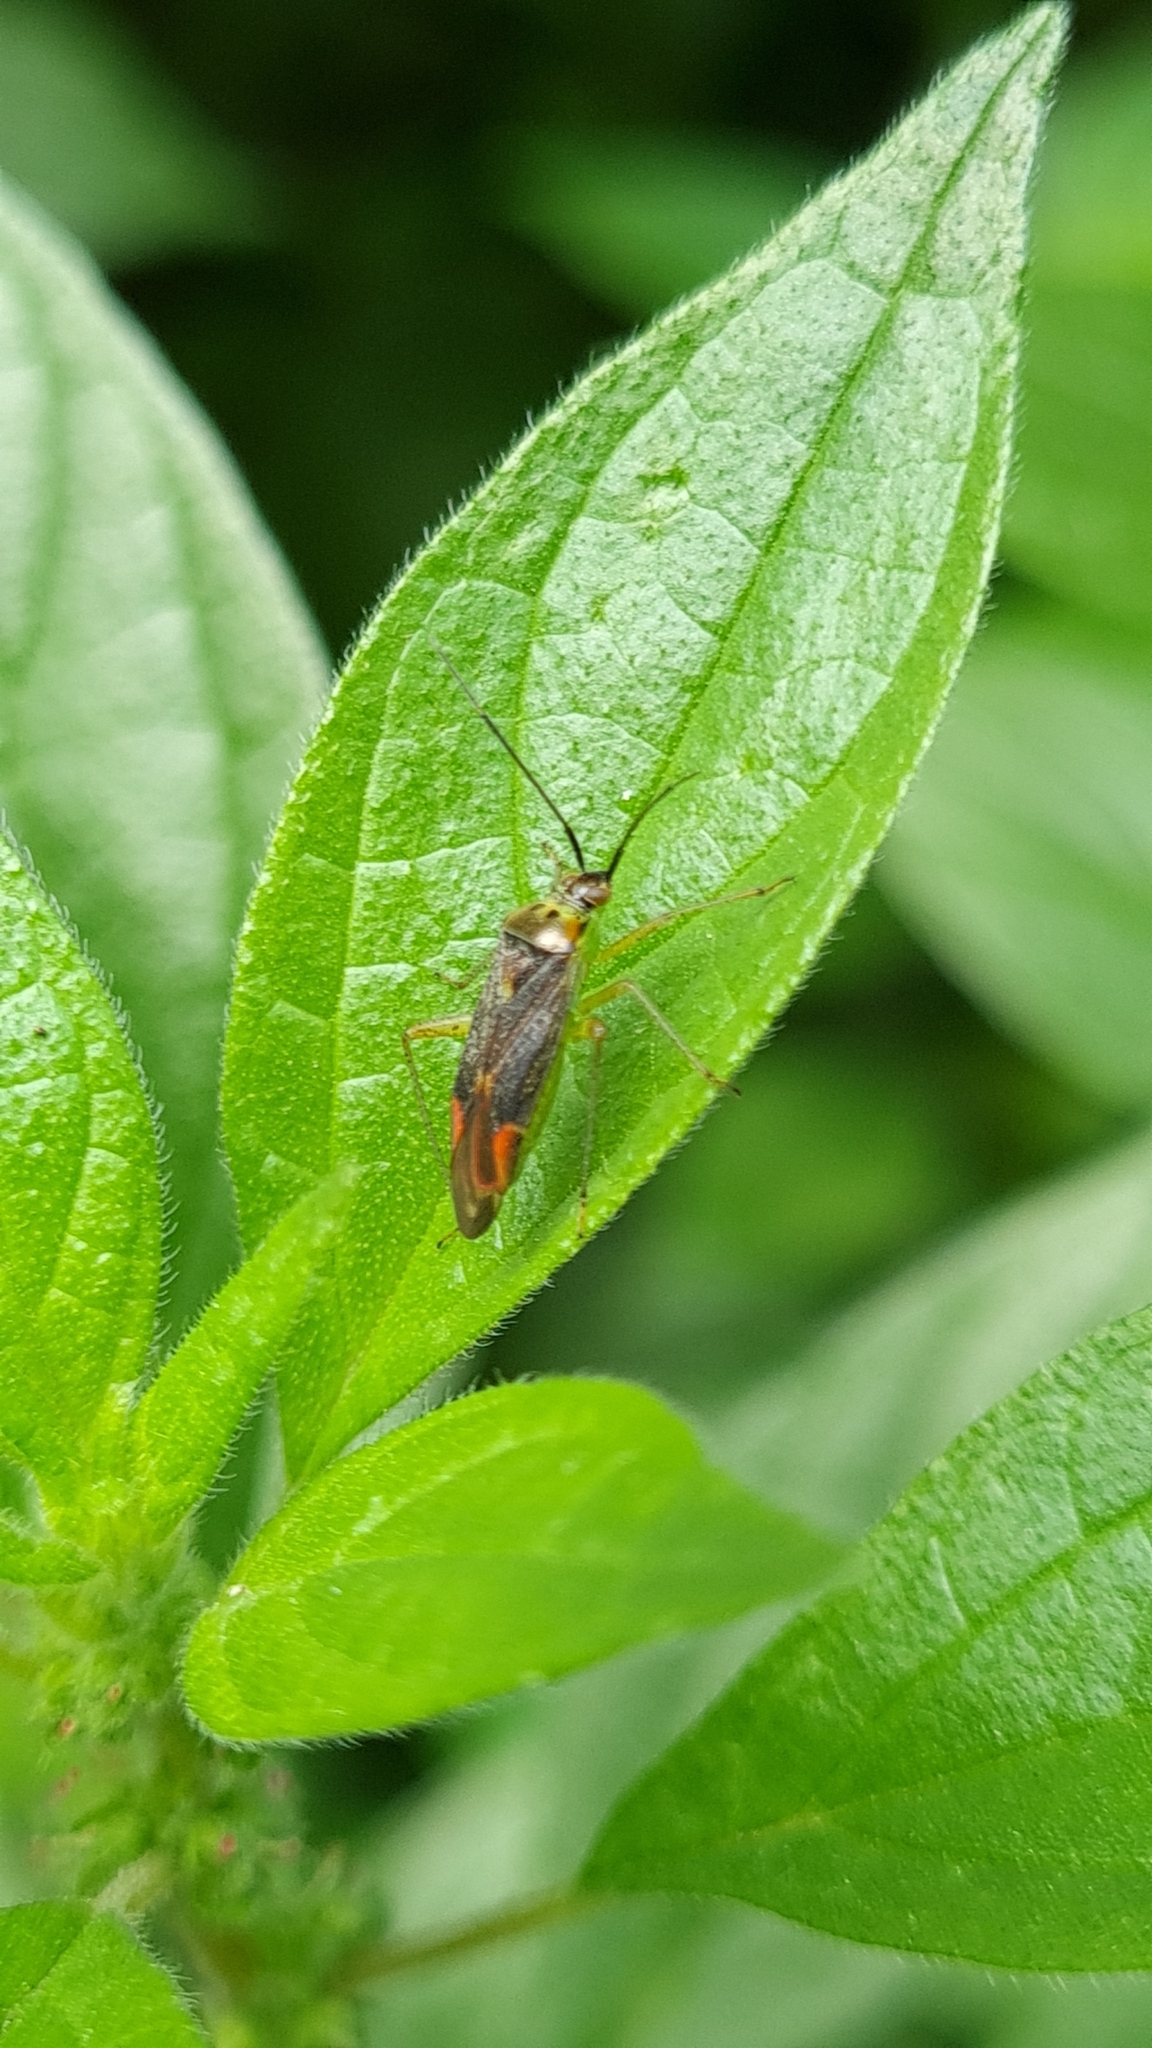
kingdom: Animalia
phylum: Arthropoda
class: Insecta
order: Hemiptera
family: Miridae
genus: Closterotomus
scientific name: Closterotomus trivialis
